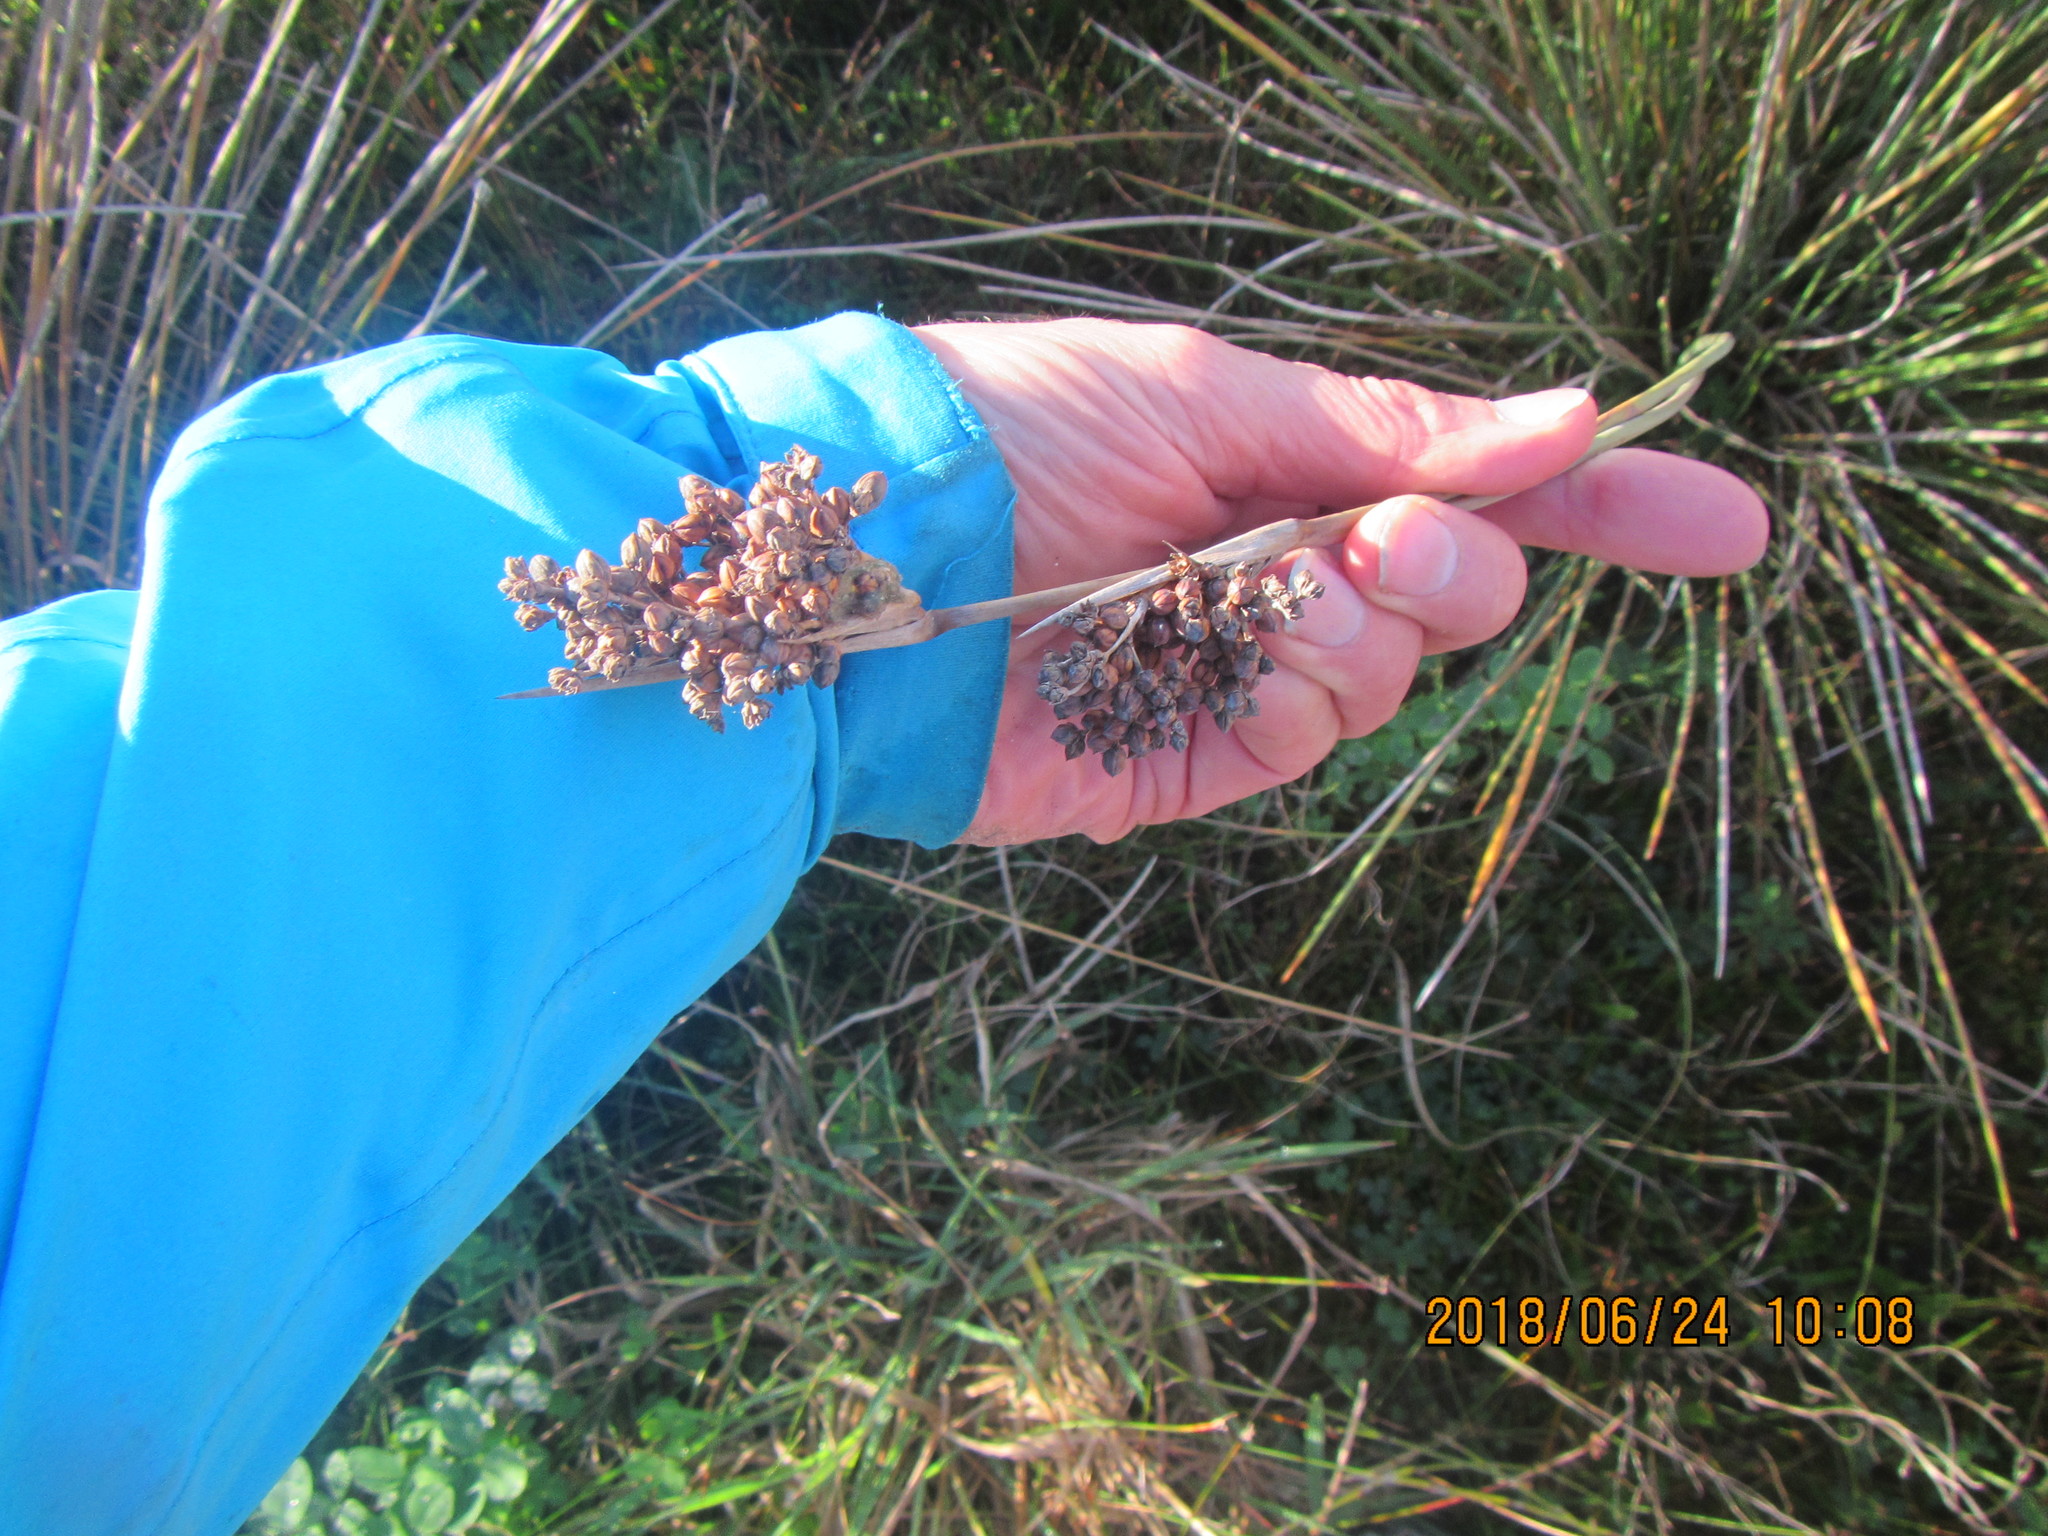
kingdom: Plantae
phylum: Tracheophyta
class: Liliopsida
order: Poales
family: Juncaceae
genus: Juncus
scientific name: Juncus acutus
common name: Sharp rush
